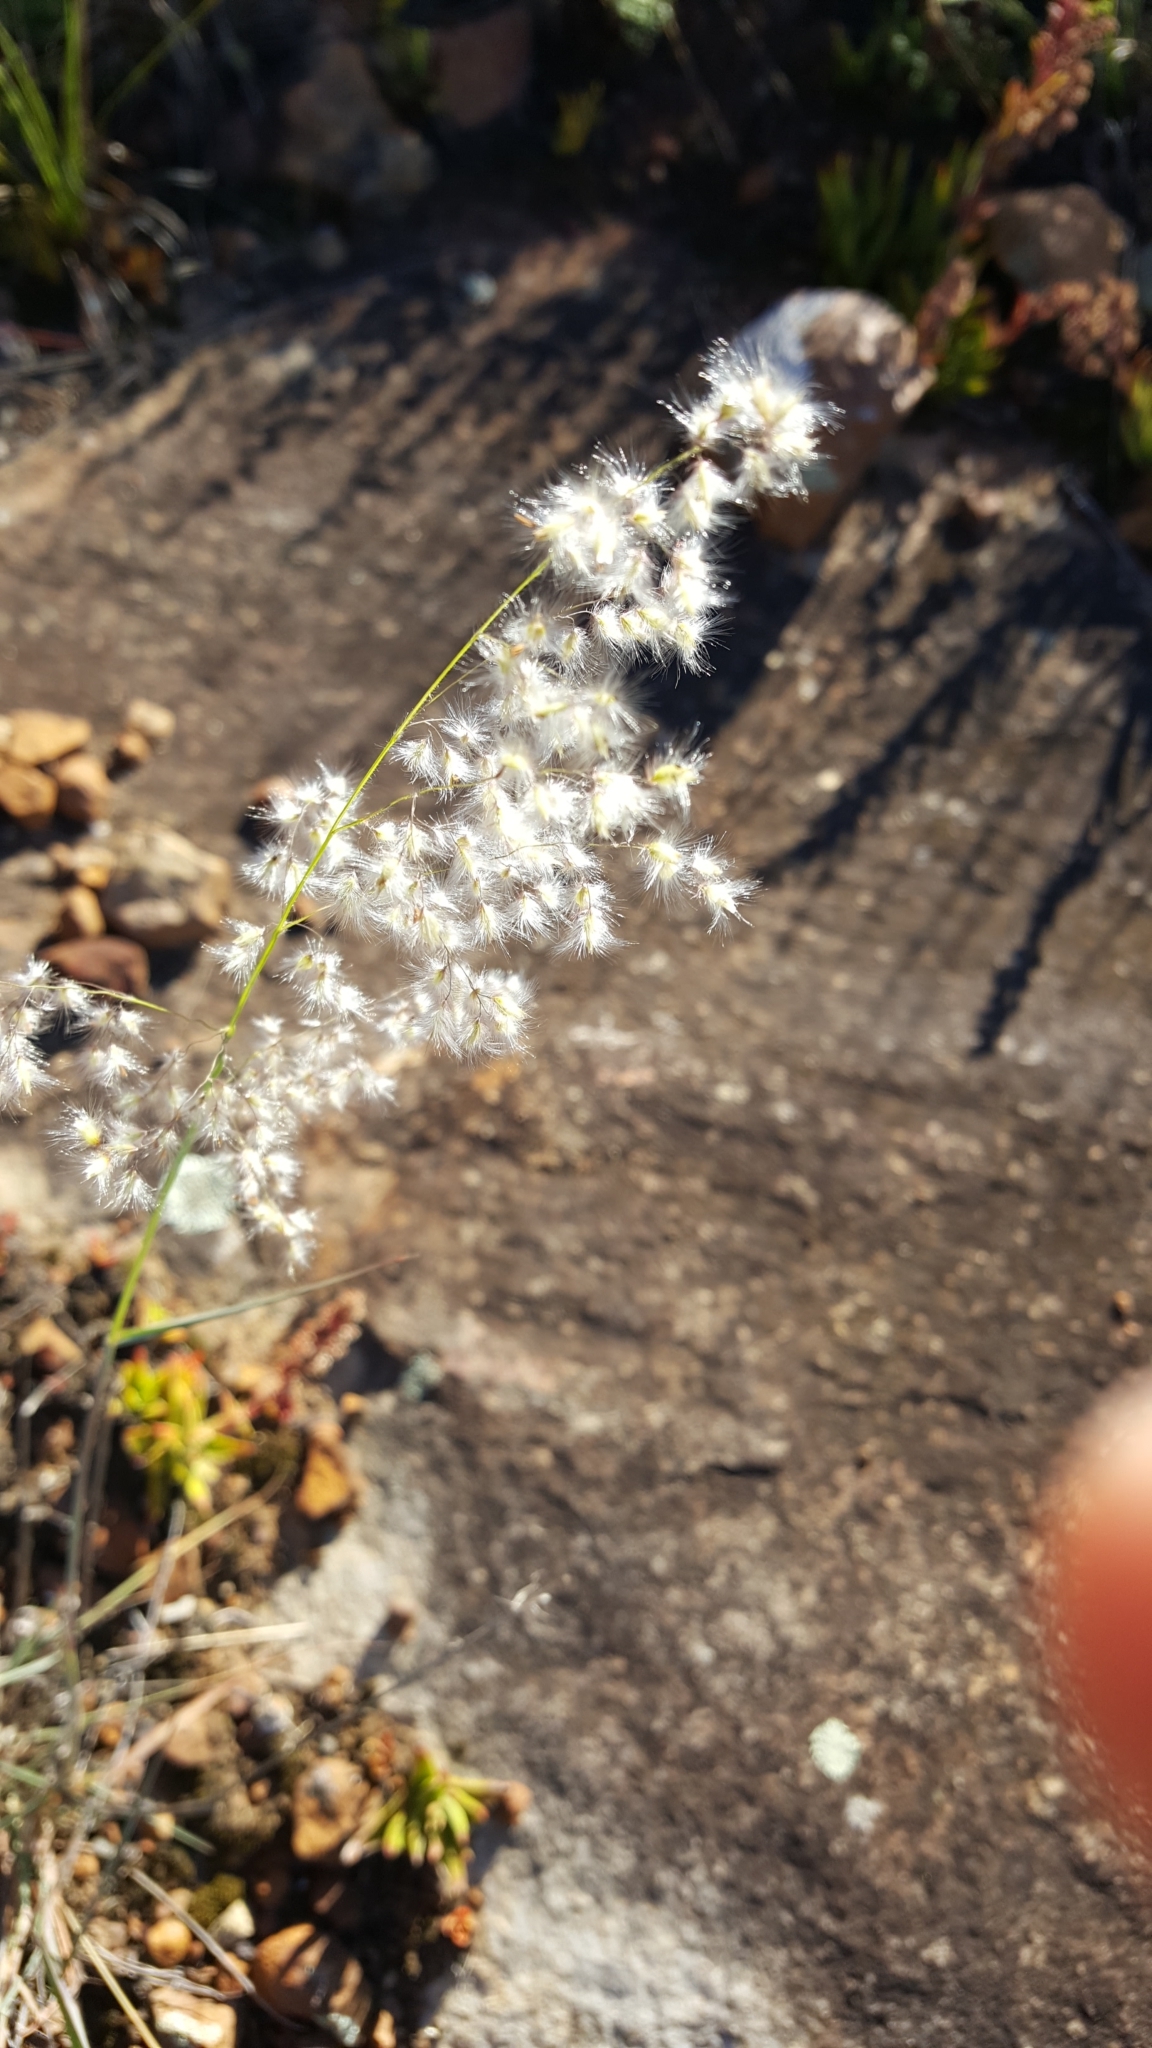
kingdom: Plantae
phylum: Tracheophyta
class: Liliopsida
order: Poales
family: Poaceae
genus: Melinis
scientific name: Melinis repens
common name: Rose natal grass
